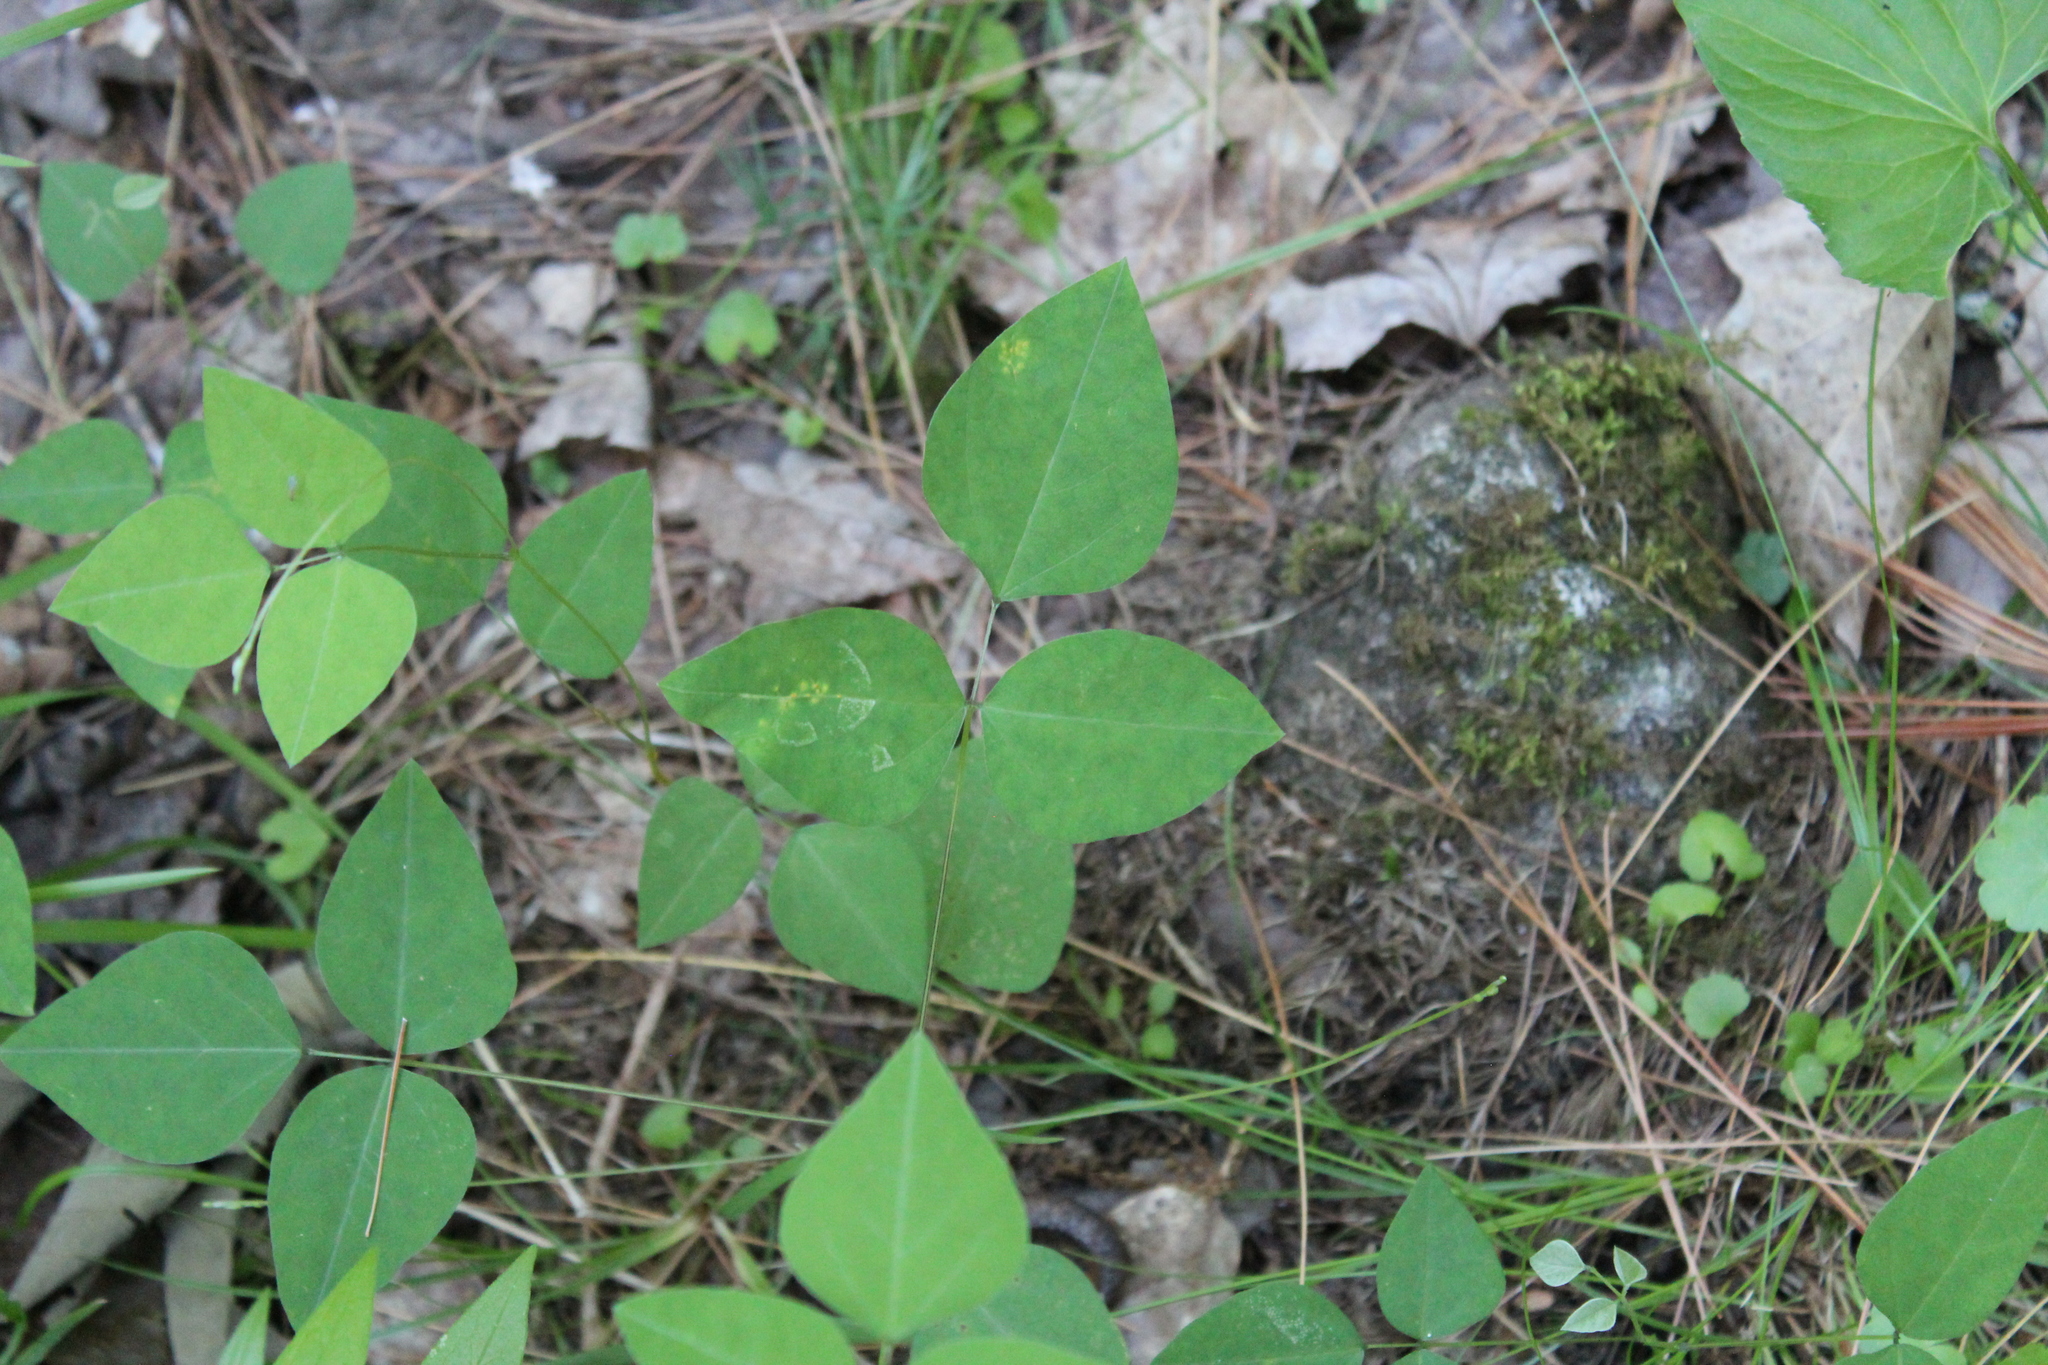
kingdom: Plantae
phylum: Tracheophyta
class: Magnoliopsida
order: Fabales
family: Fabaceae
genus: Amphicarpaea
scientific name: Amphicarpaea bracteata
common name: American hog peanut
